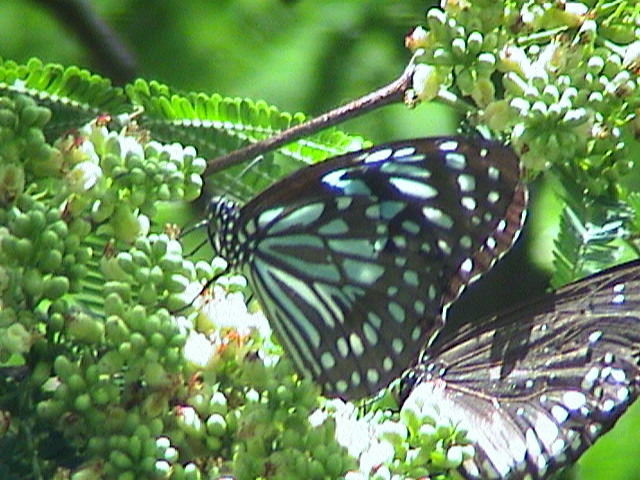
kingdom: Animalia
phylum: Arthropoda
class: Insecta
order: Lepidoptera
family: Nymphalidae
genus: Tirumala
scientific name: Tirumala septentrionis
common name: Dark blue tiger butterfly
